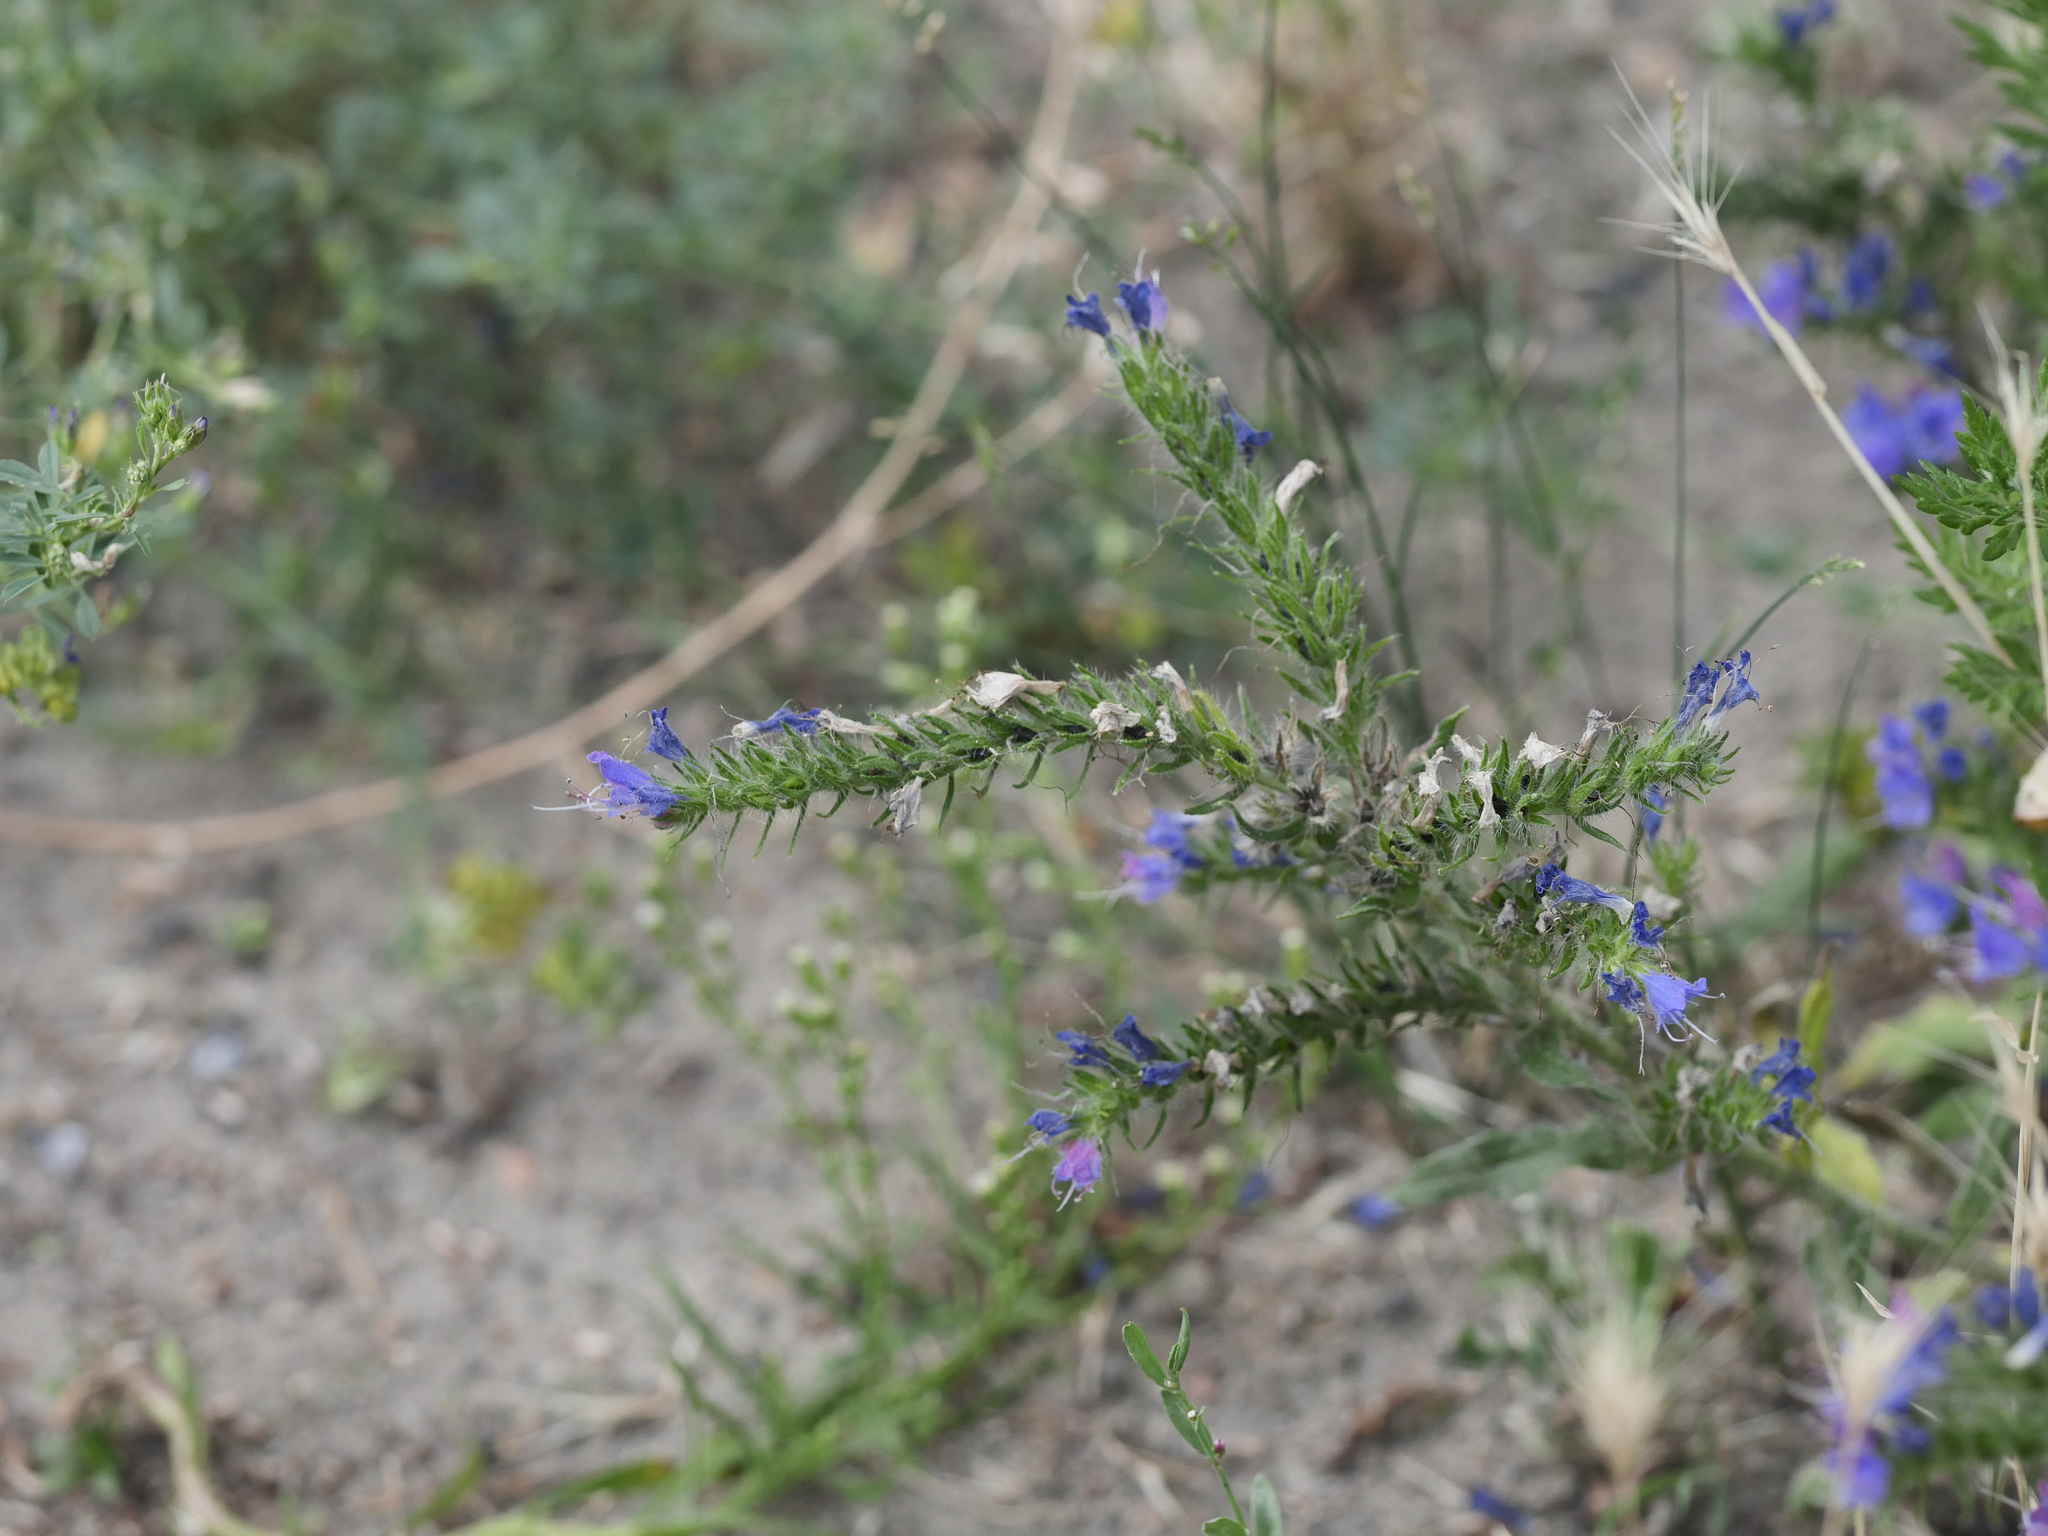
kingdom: Plantae
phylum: Tracheophyta
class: Magnoliopsida
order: Boraginales
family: Boraginaceae
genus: Echium
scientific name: Echium vulgare
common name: Common viper's bugloss
